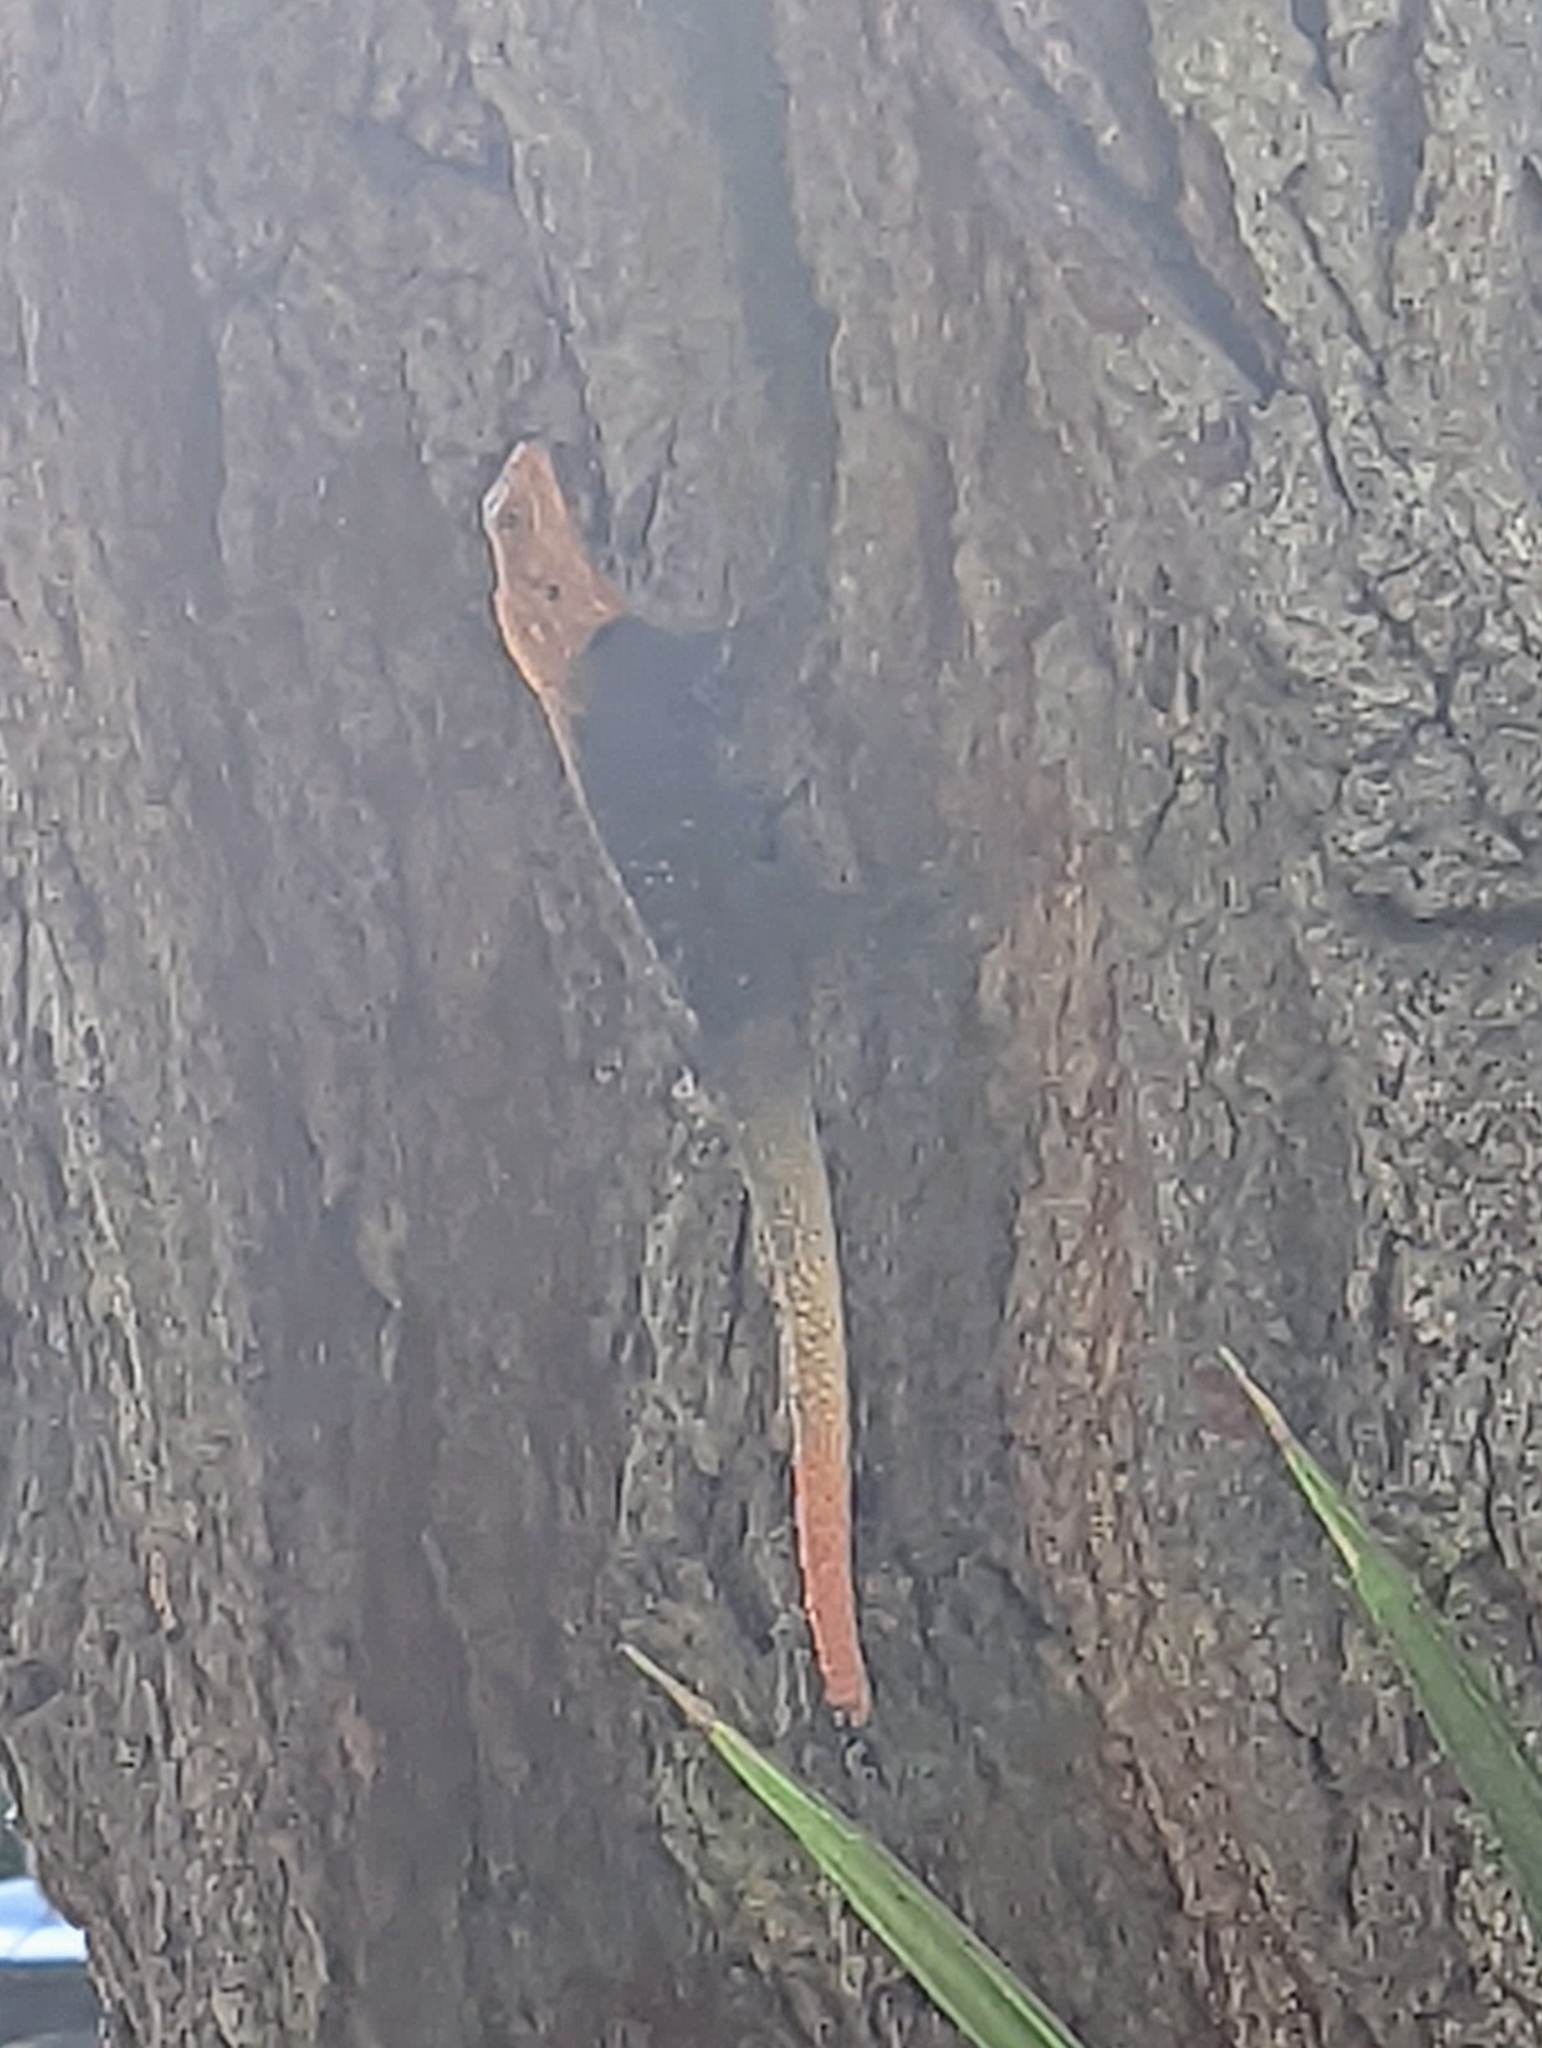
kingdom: Animalia
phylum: Chordata
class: Squamata
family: Agamidae
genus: Agama
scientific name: Agama picticauda
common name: Red-headed agama
